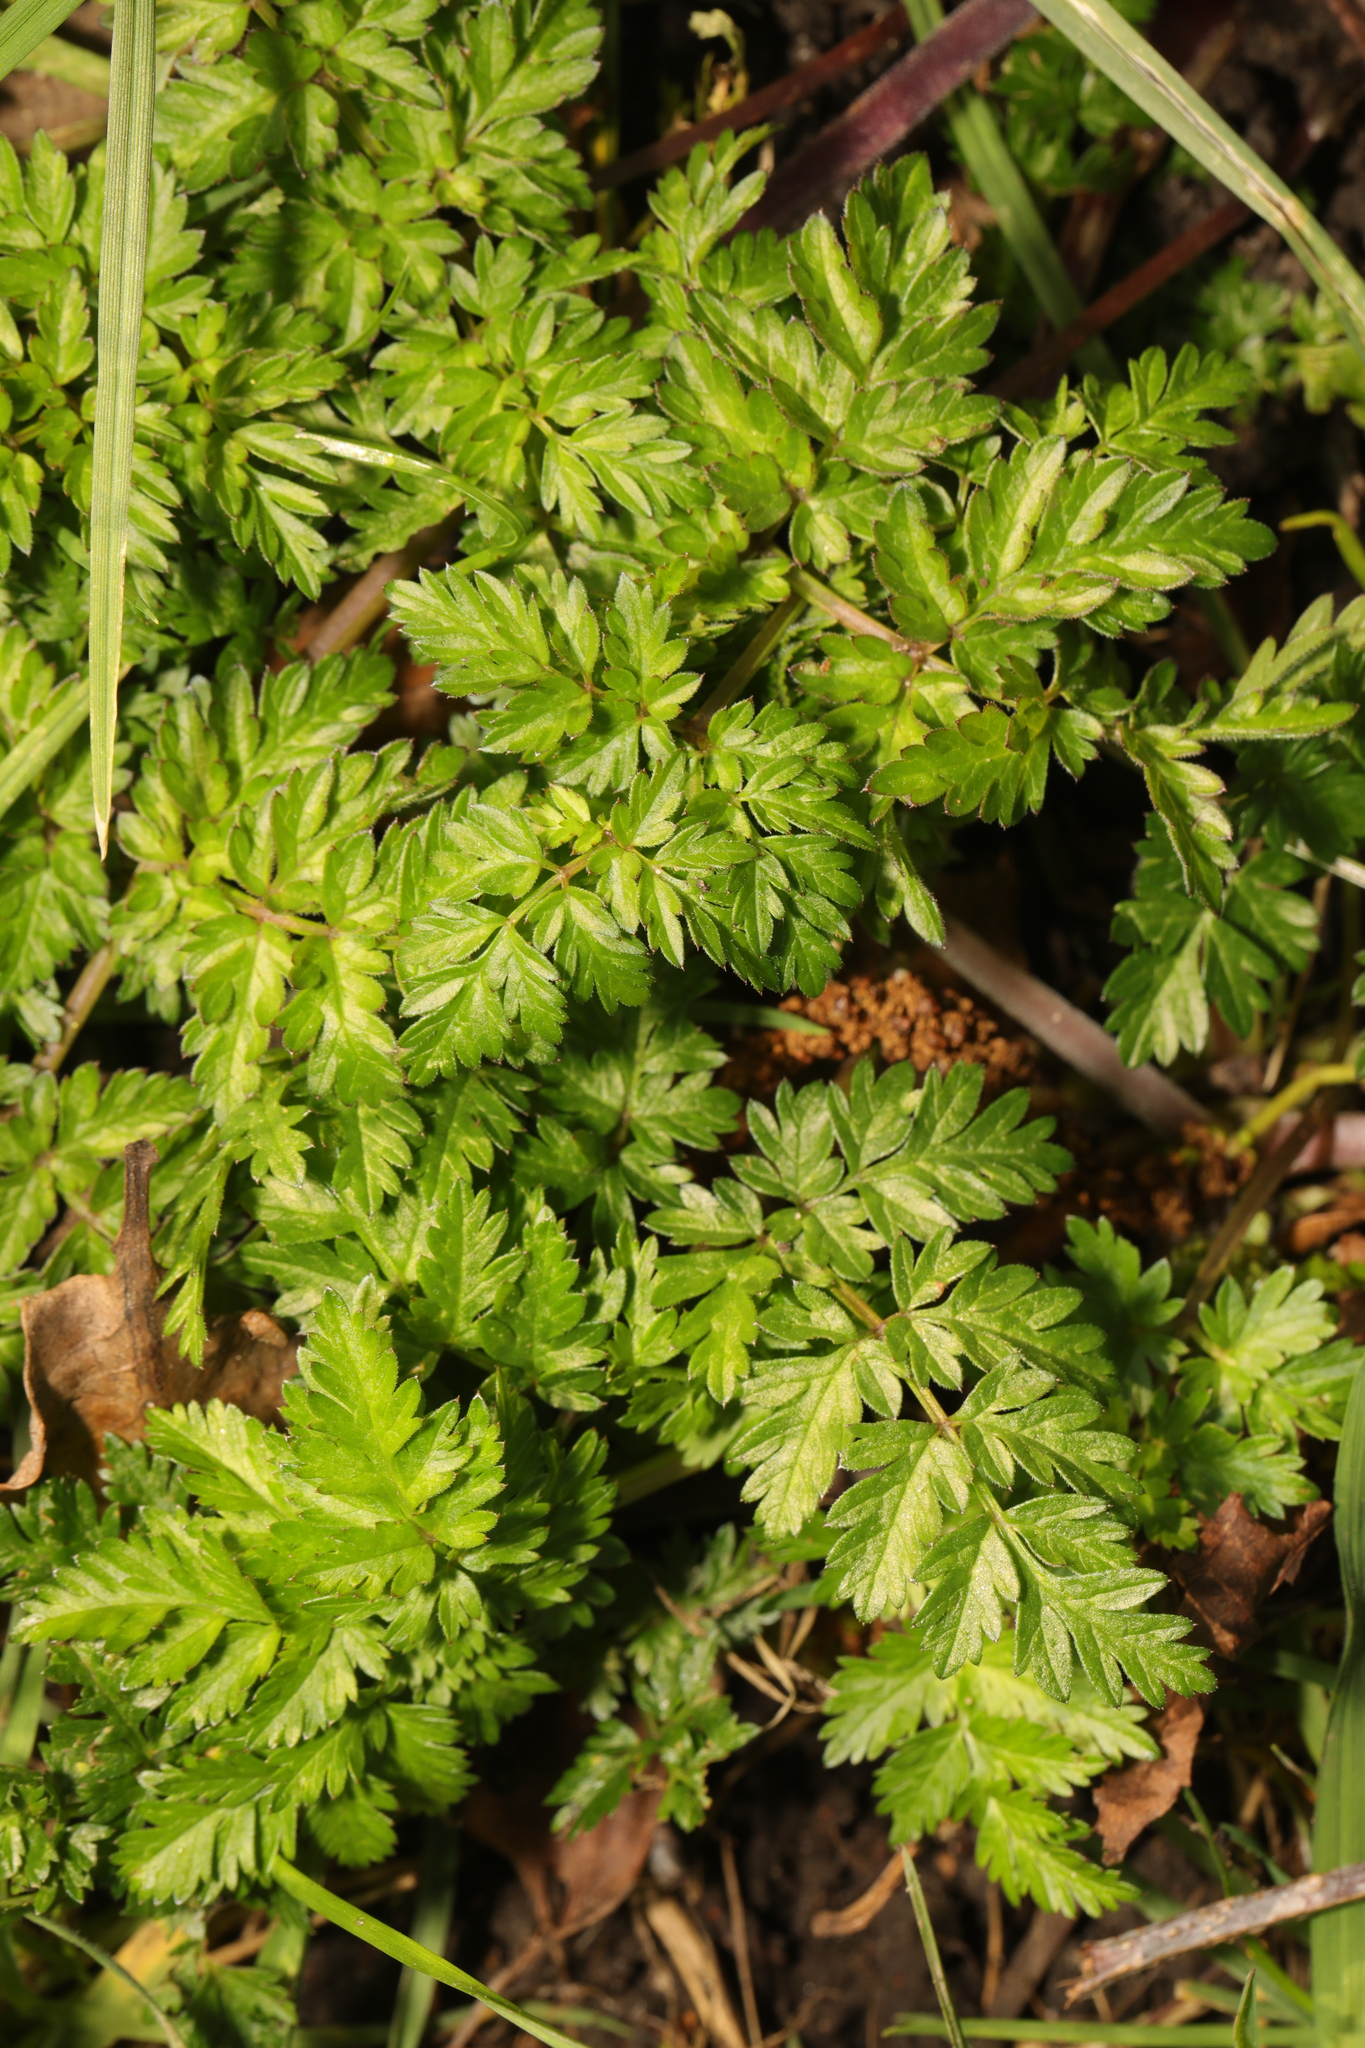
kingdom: Plantae
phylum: Tracheophyta
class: Magnoliopsida
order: Apiales
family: Apiaceae
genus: Anthriscus
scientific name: Anthriscus sylvestris
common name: Cow parsley
